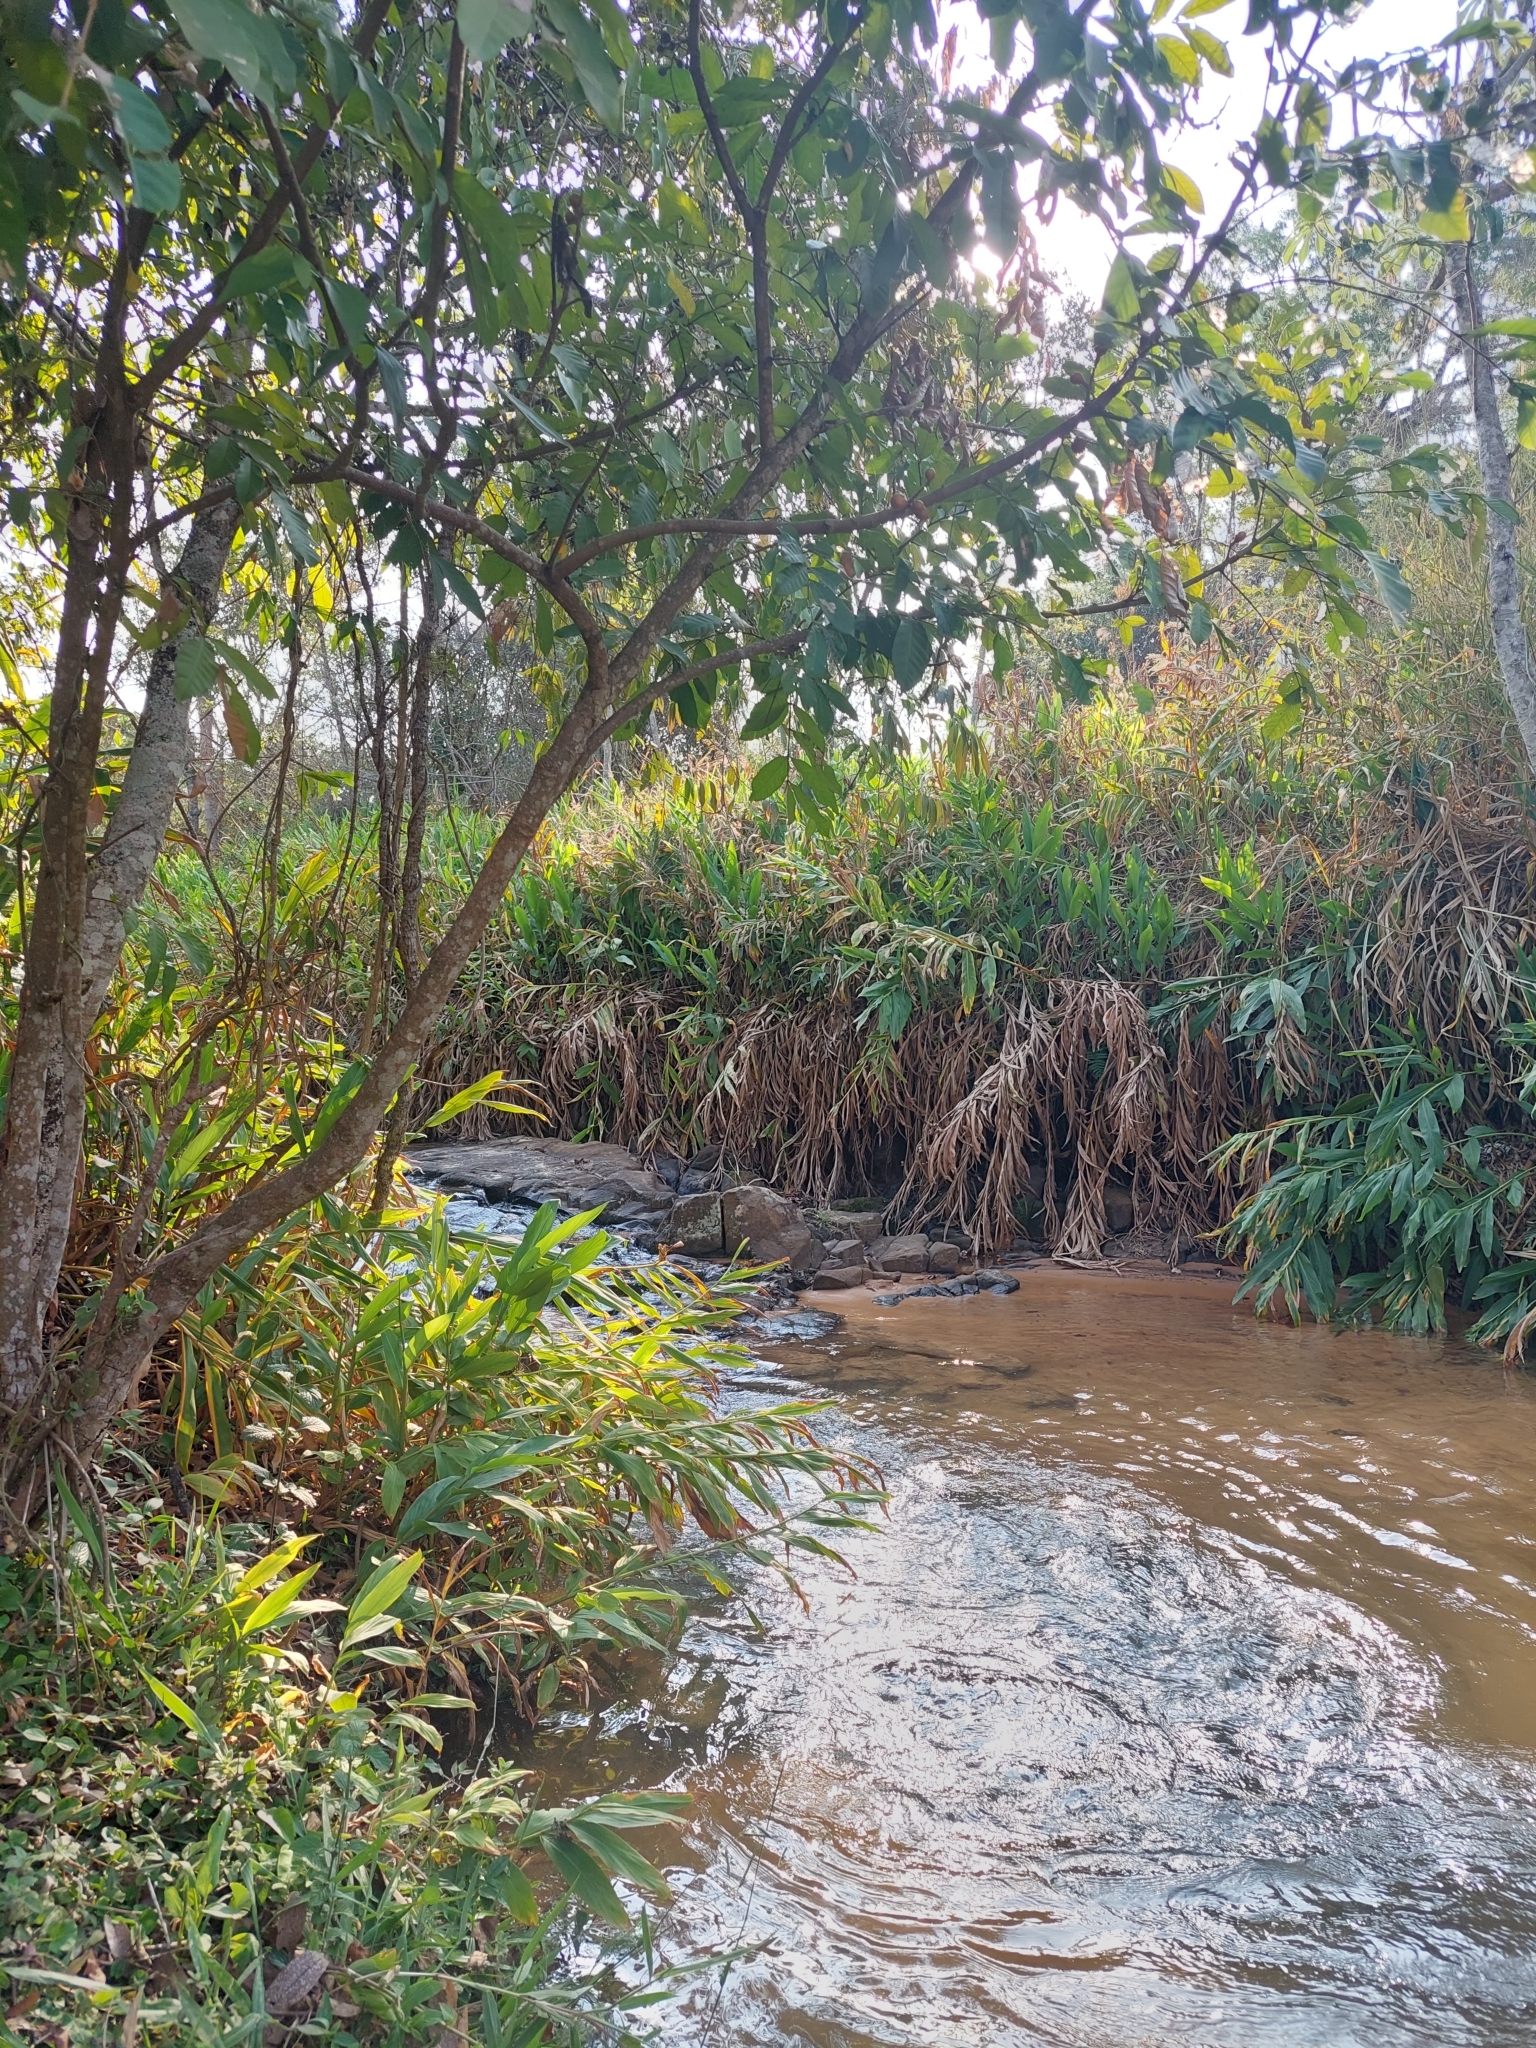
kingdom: Plantae
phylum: Tracheophyta
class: Liliopsida
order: Zingiberales
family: Zingiberaceae
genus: Hedychium
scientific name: Hedychium coronarium
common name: White garland-lily
